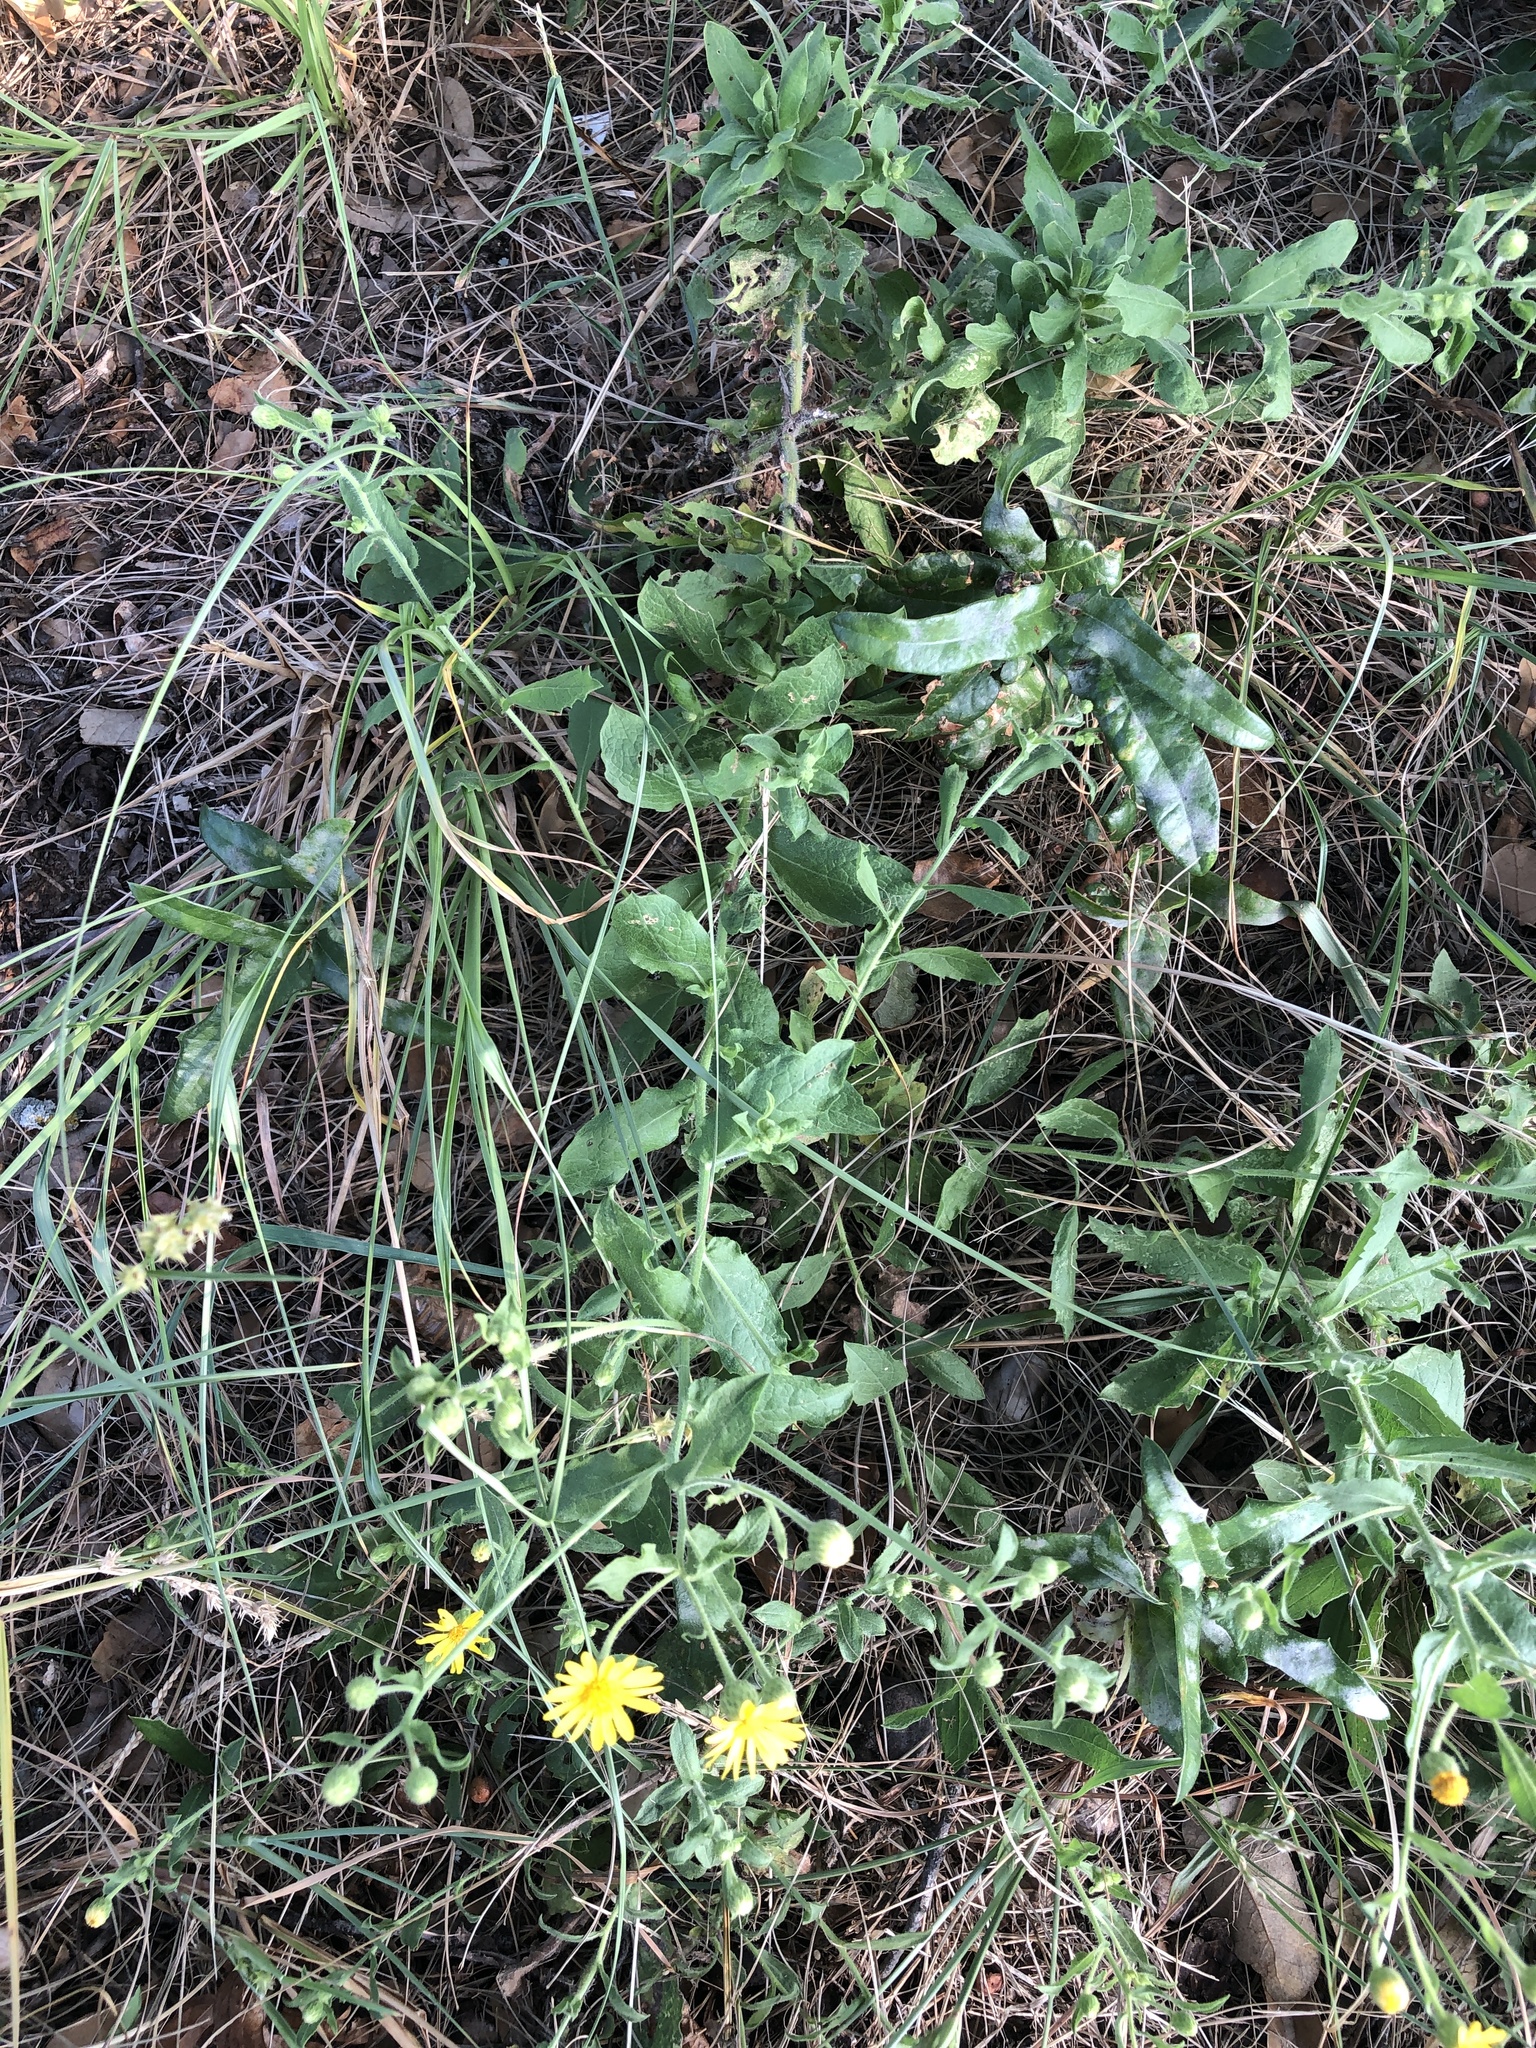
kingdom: Plantae
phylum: Tracheophyta
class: Magnoliopsida
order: Asterales
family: Asteraceae
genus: Heterotheca
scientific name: Heterotheca subaxillaris
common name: Camphorweed
